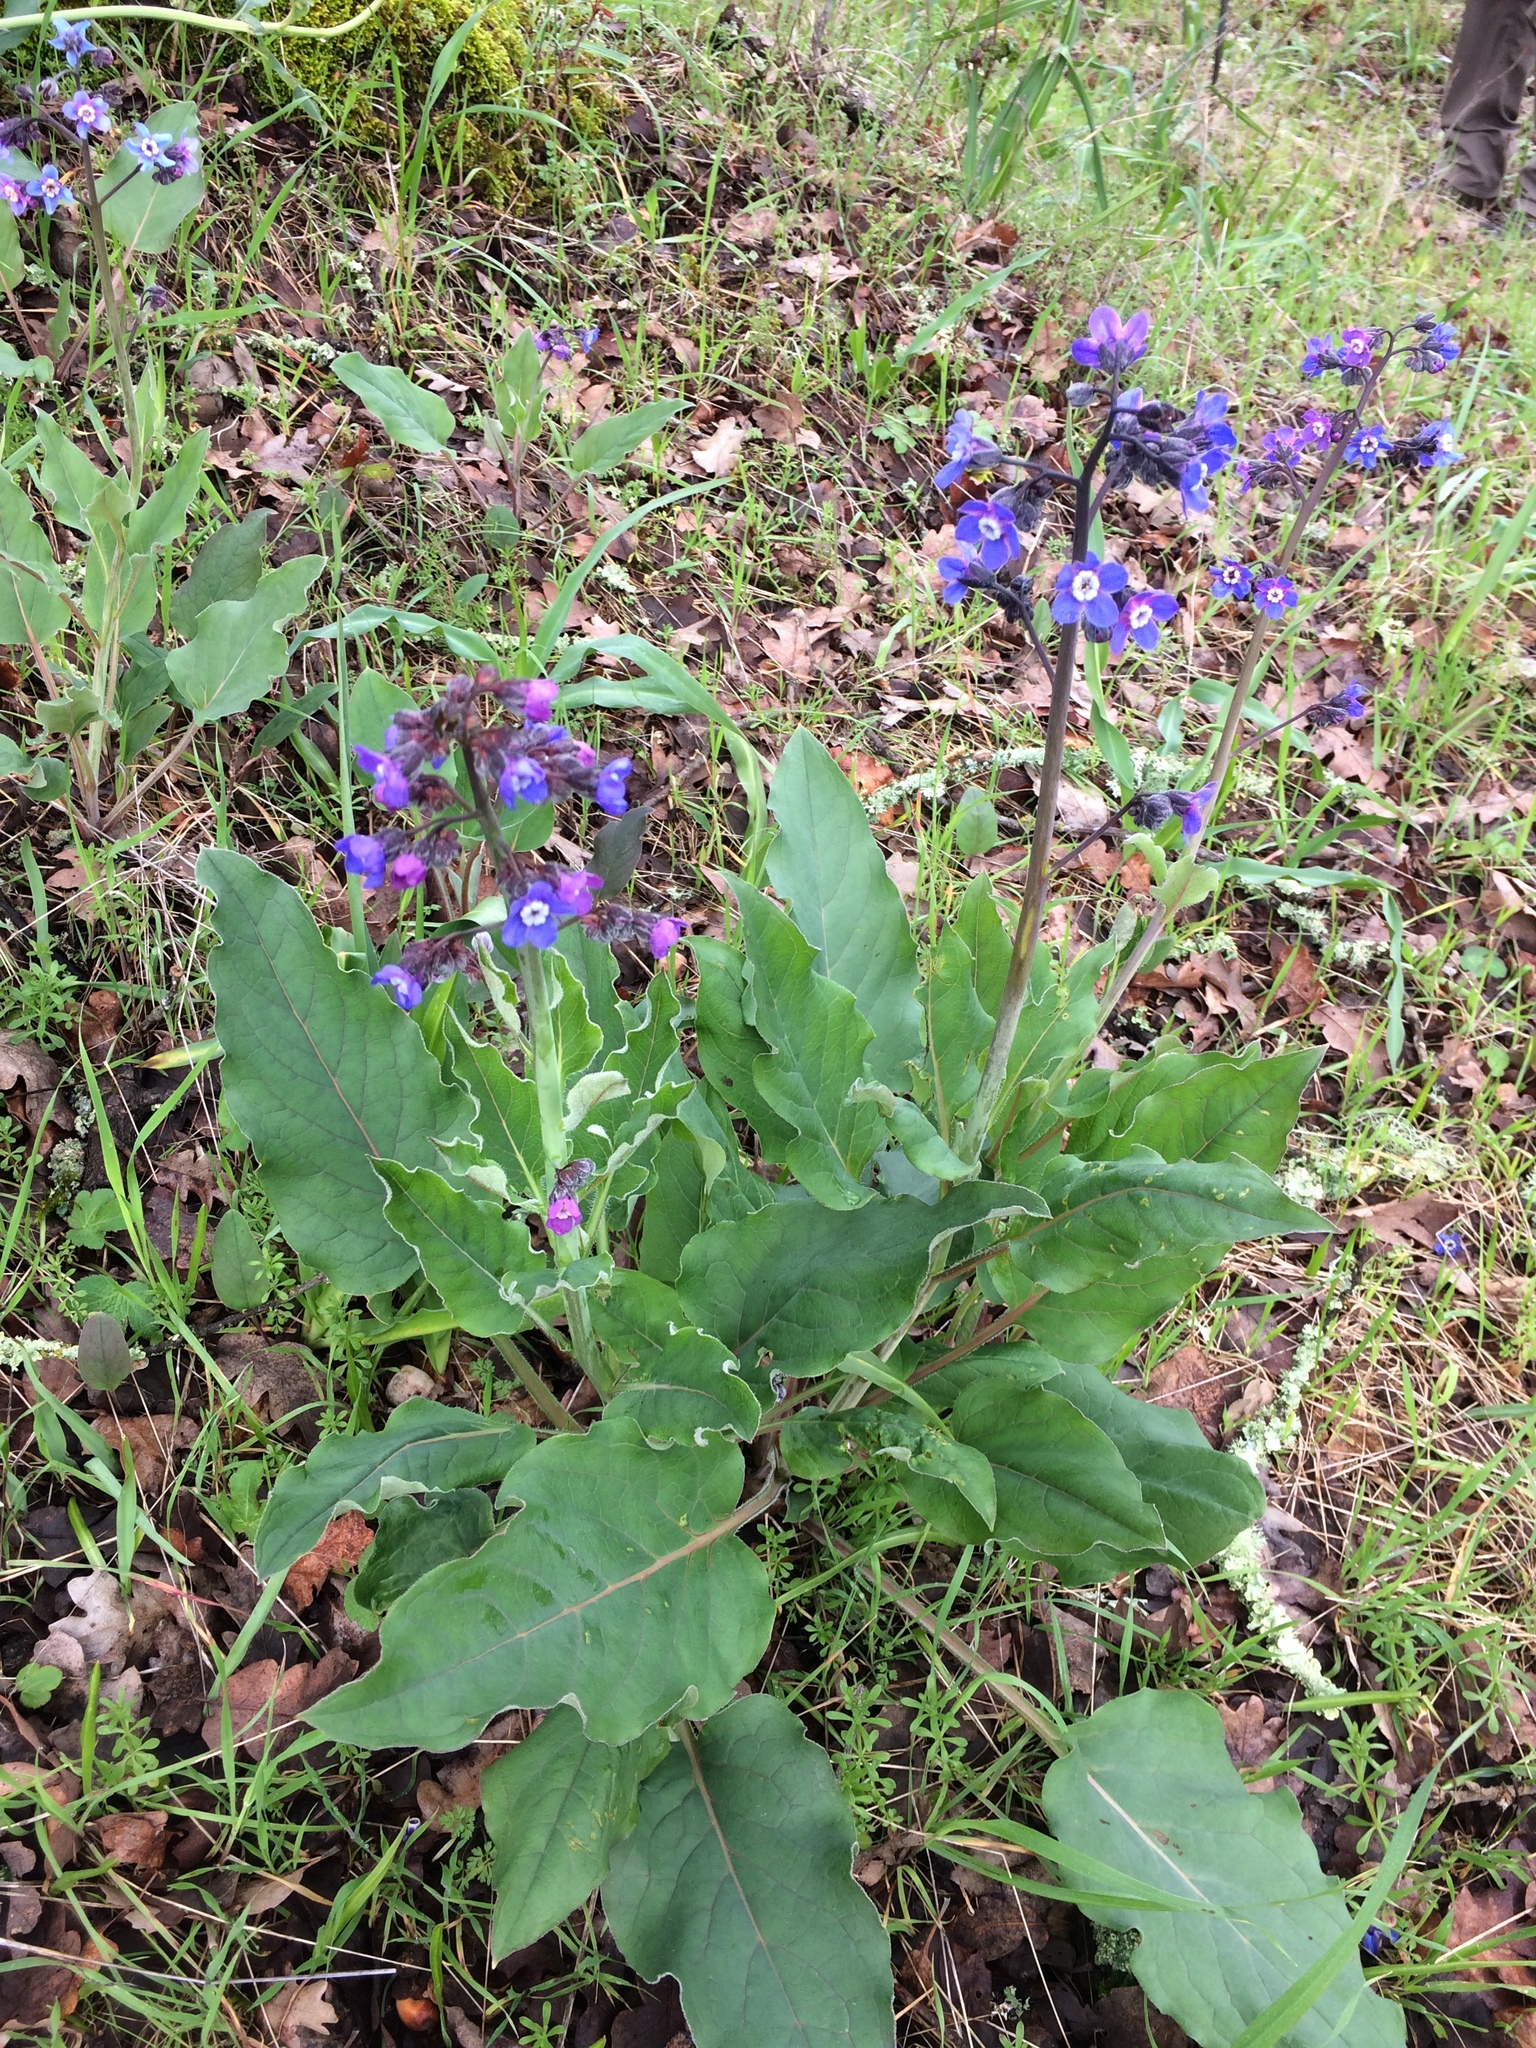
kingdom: Plantae
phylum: Tracheophyta
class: Magnoliopsida
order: Boraginales
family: Boraginaceae
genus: Adelinia
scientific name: Adelinia grande
